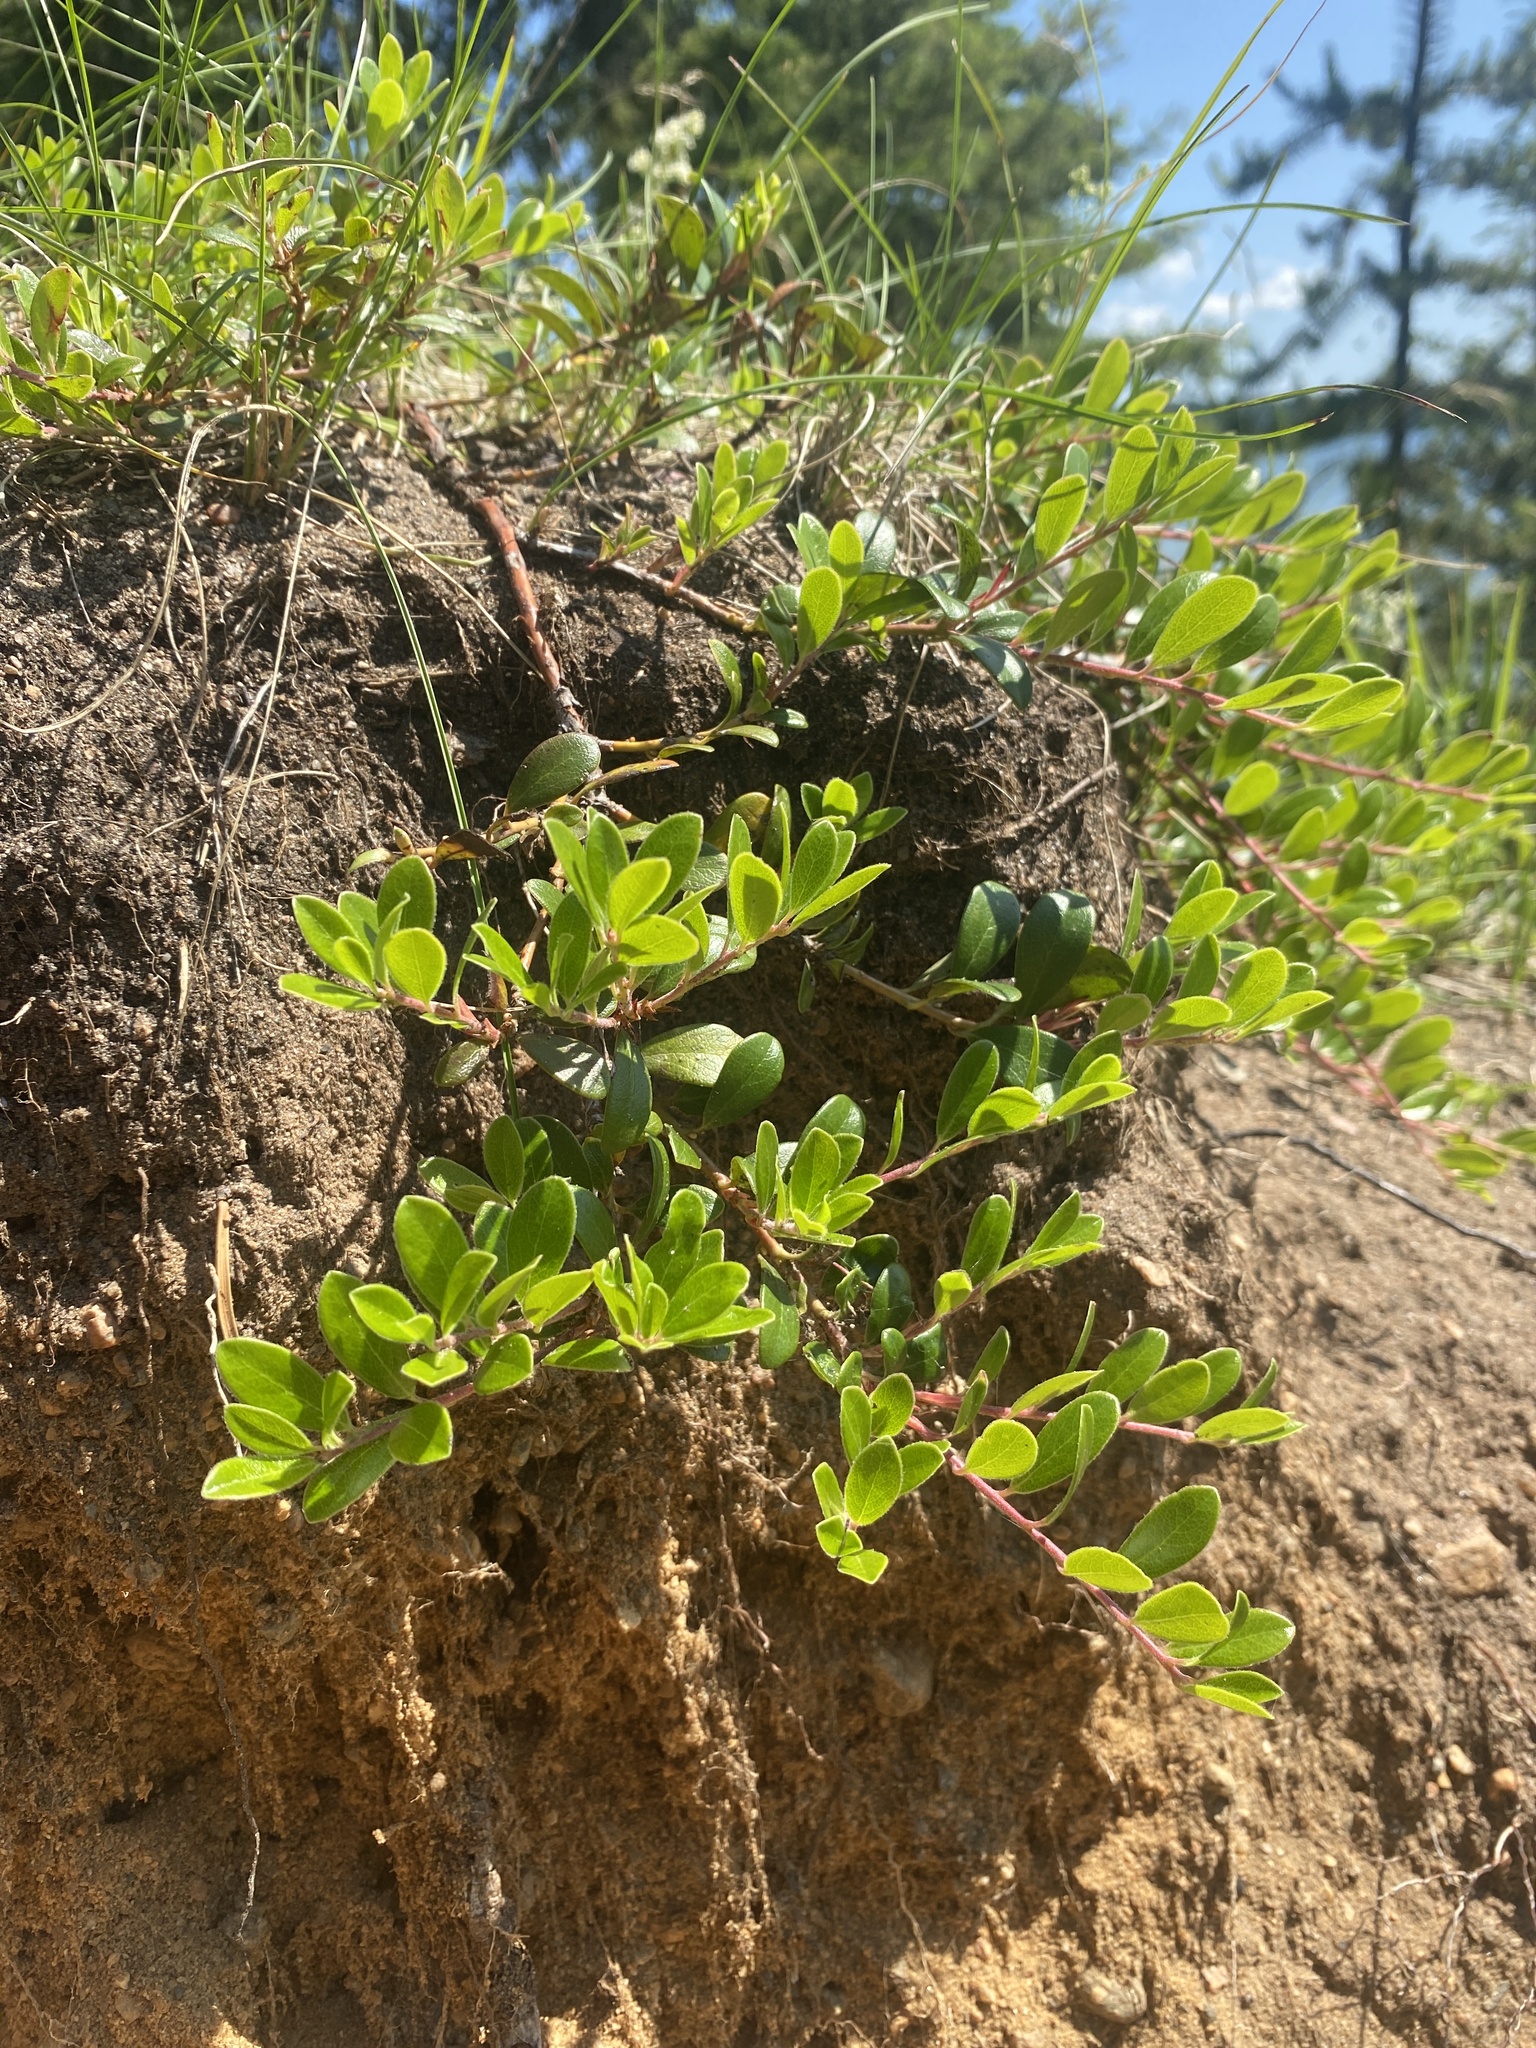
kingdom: Plantae
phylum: Tracheophyta
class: Magnoliopsida
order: Ericales
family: Ericaceae
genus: Arctostaphylos
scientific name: Arctostaphylos uva-ursi
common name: Bearberry
